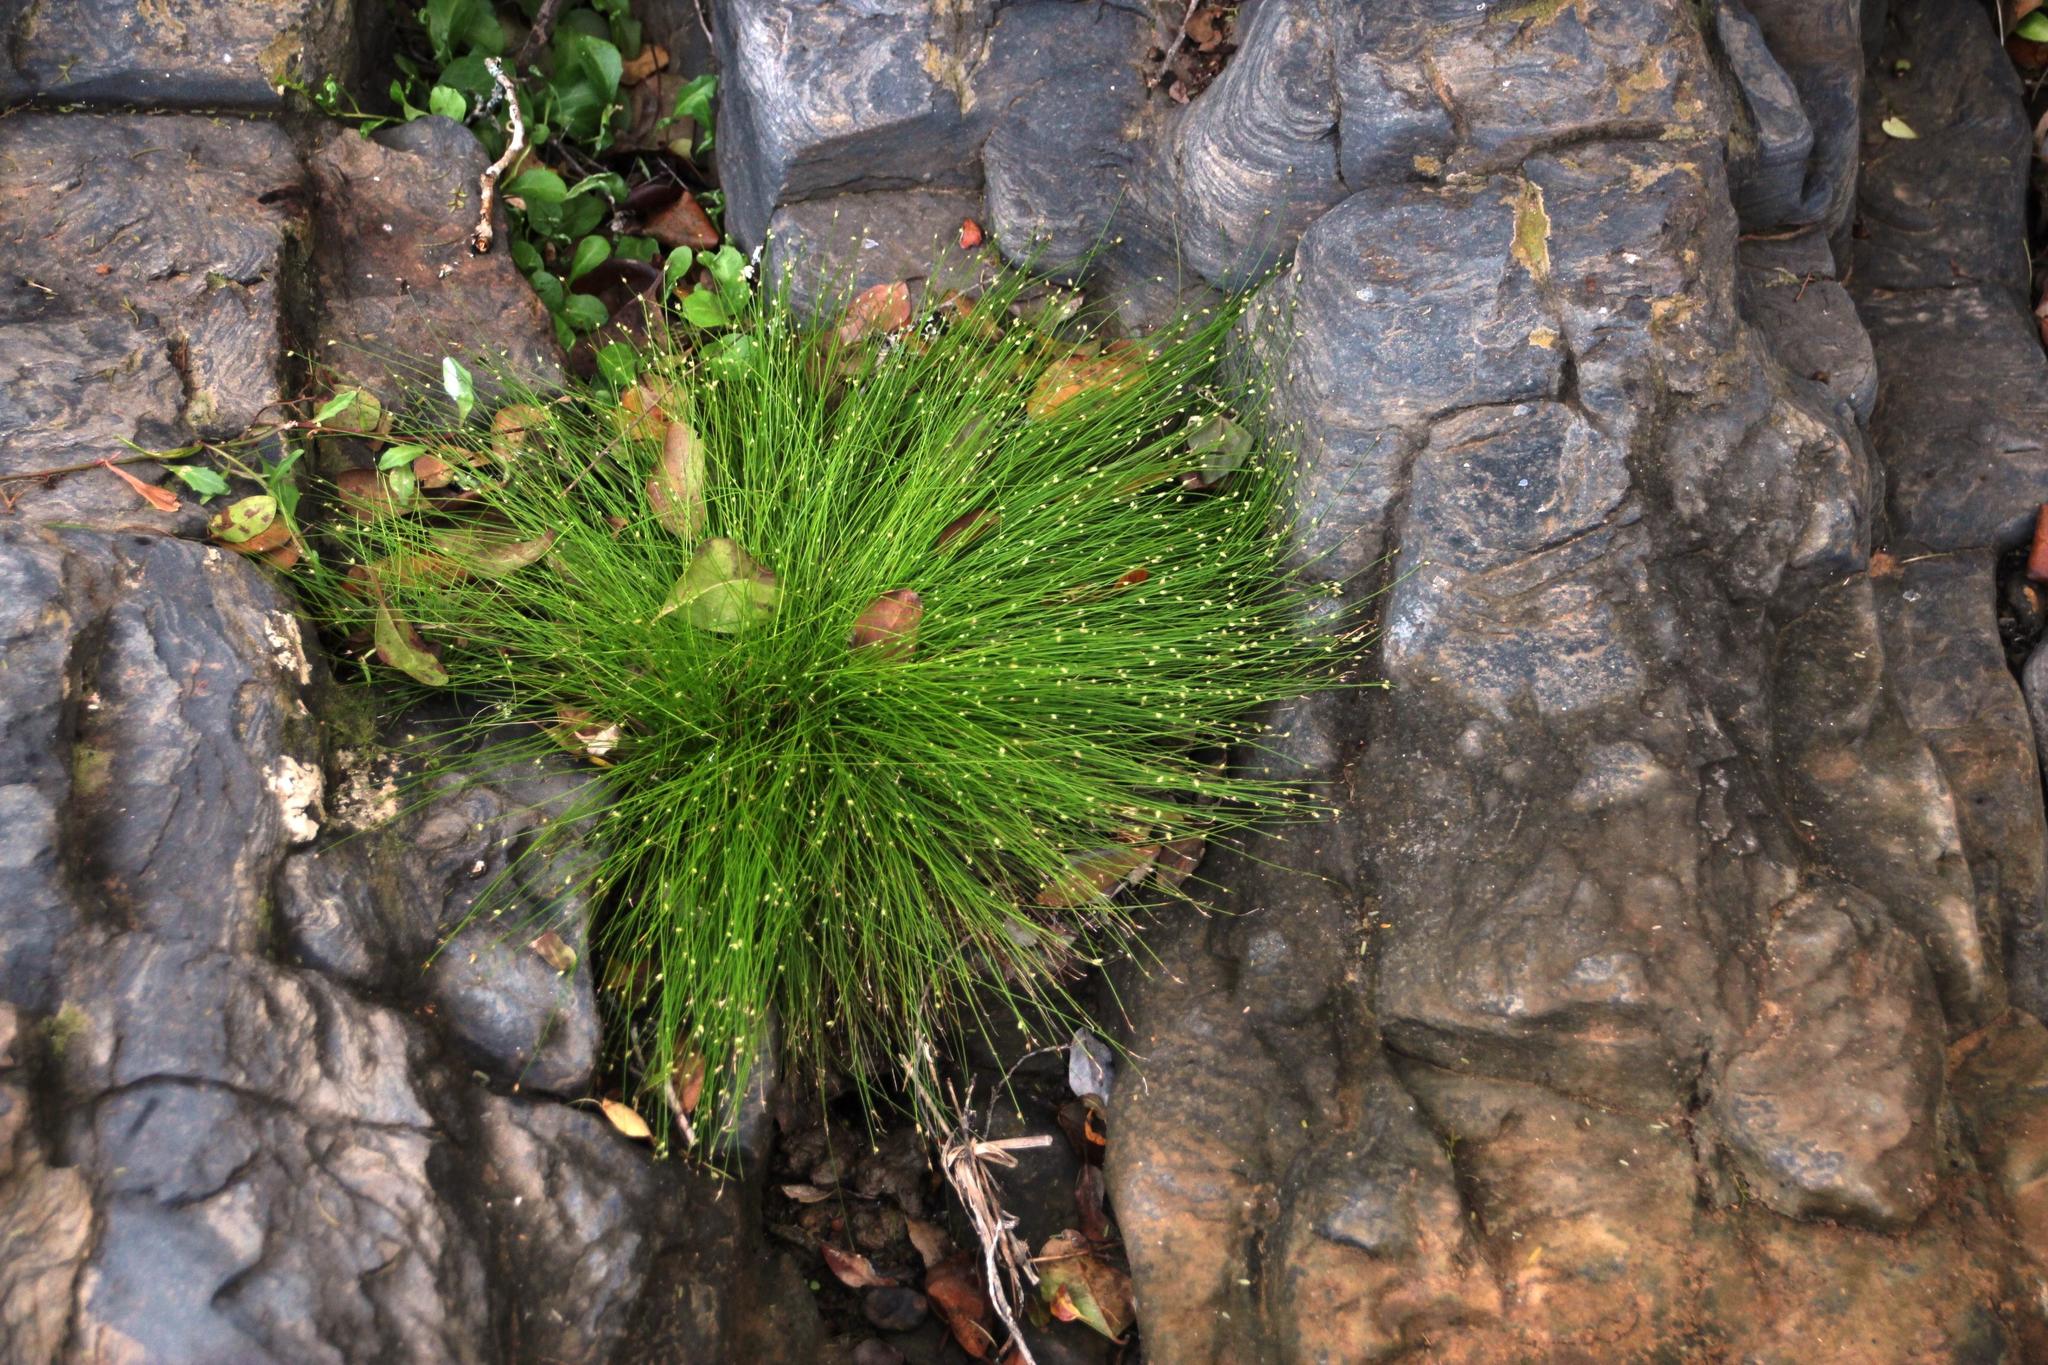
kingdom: Plantae
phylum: Tracheophyta
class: Liliopsida
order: Poales
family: Cyperaceae
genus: Isolepis
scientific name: Isolepis cernua
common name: Slender club-rush
